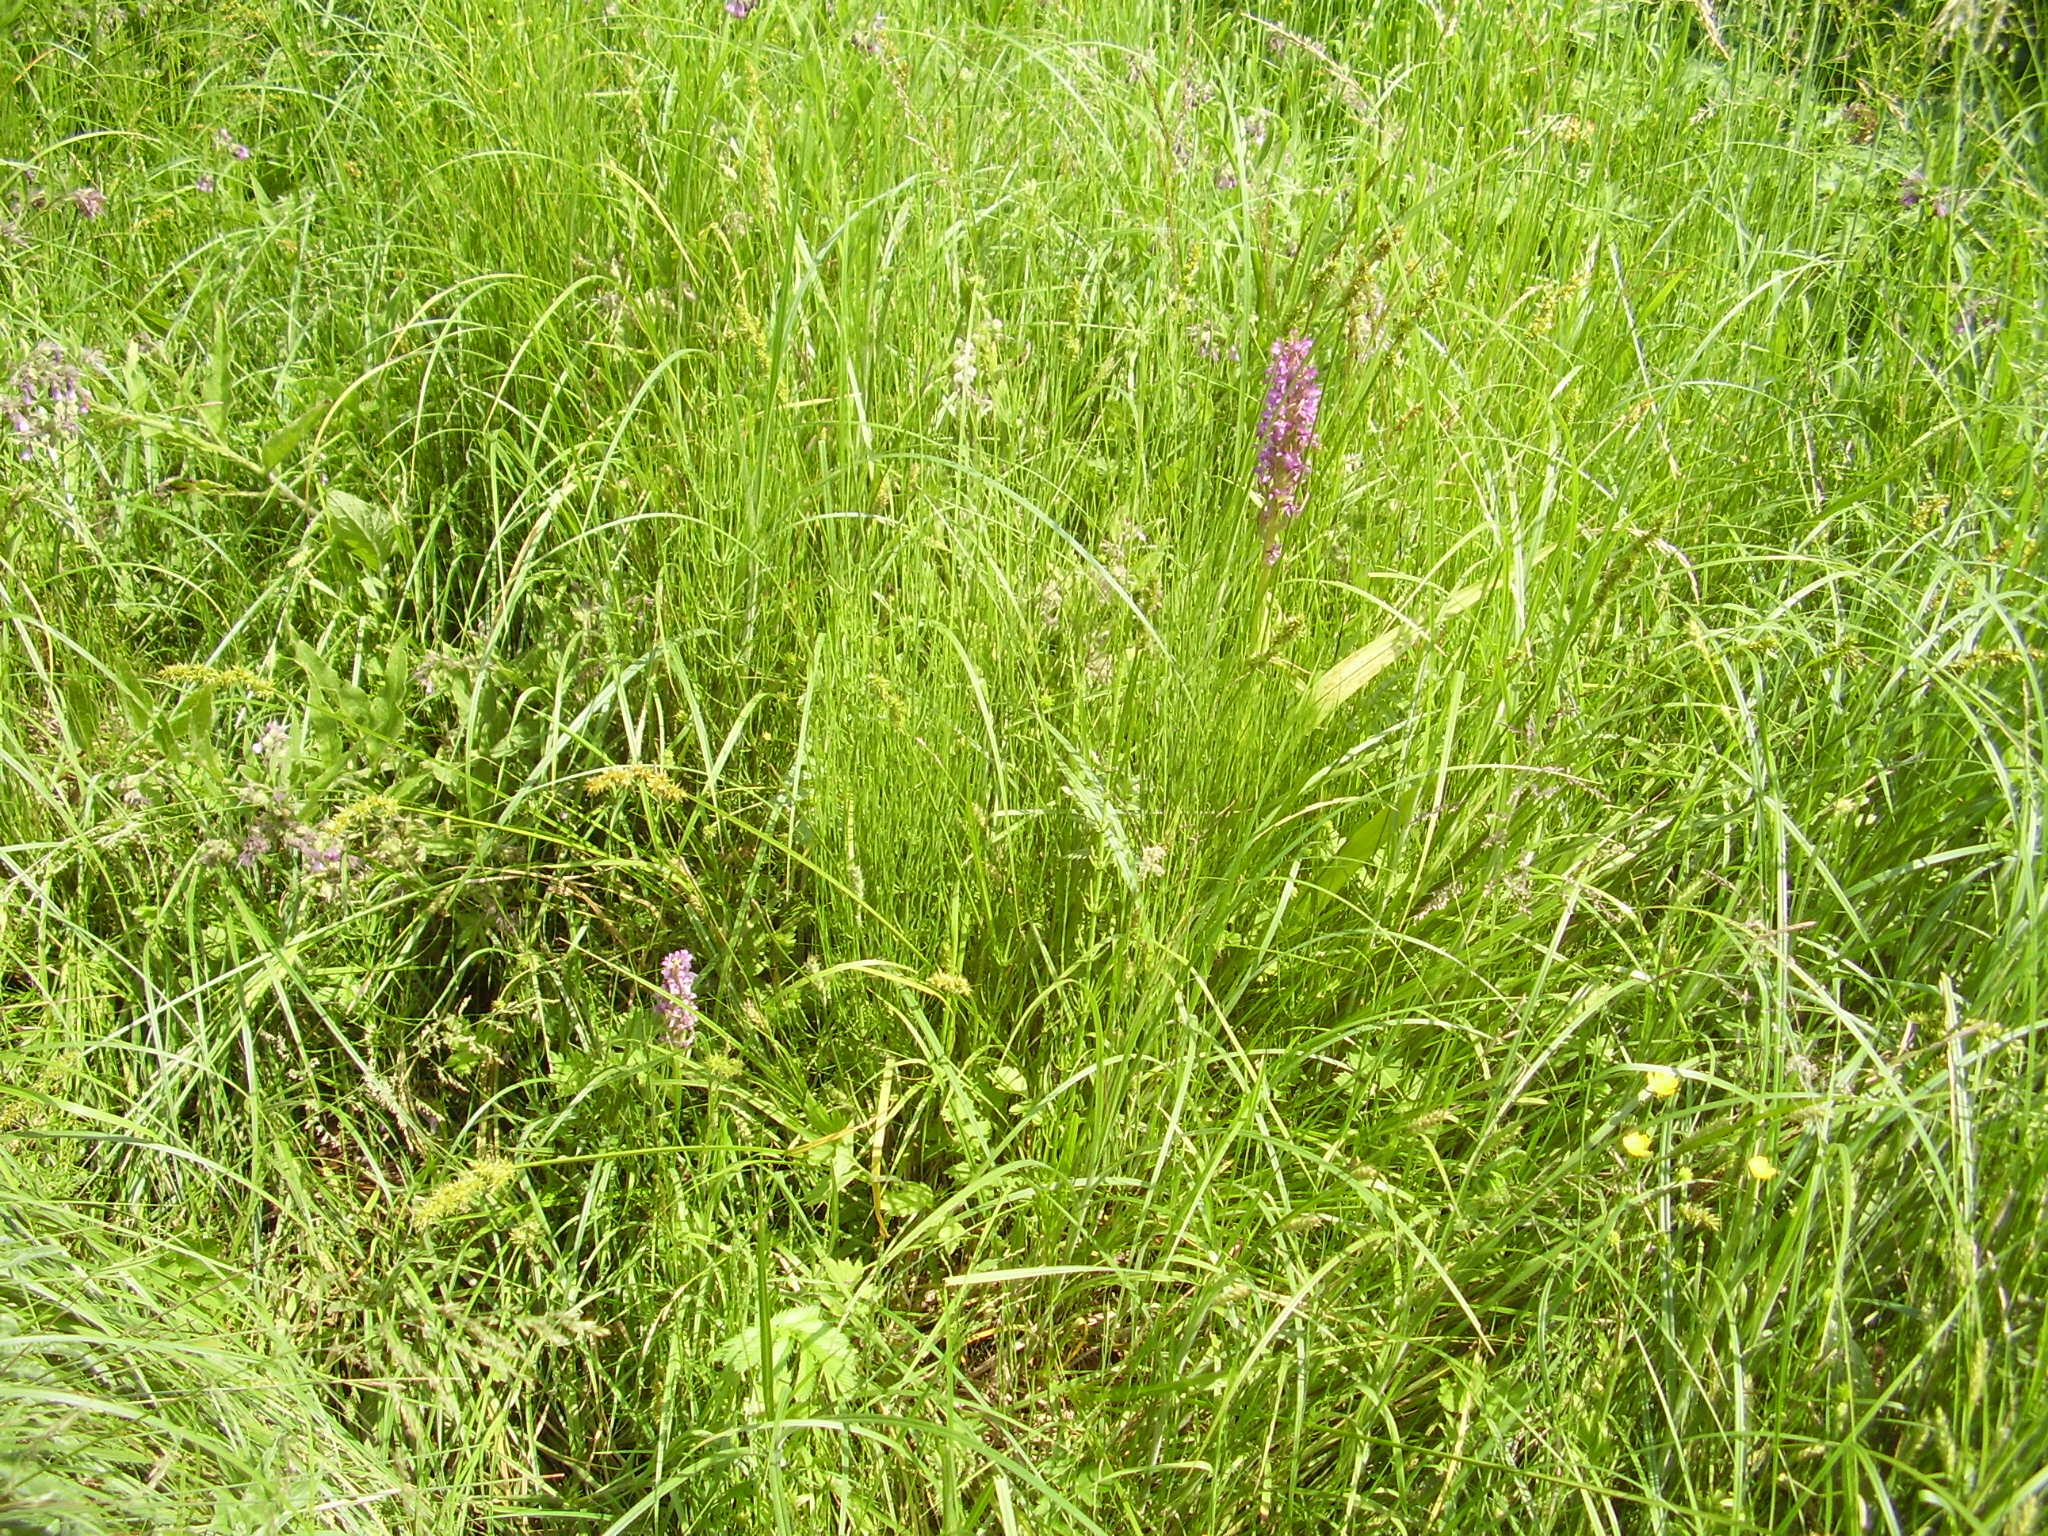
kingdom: Plantae
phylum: Tracheophyta
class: Liliopsida
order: Asparagales
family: Orchidaceae
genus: Dactylorhiza
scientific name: Dactylorhiza incarnata
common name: Early marsh-orchid
